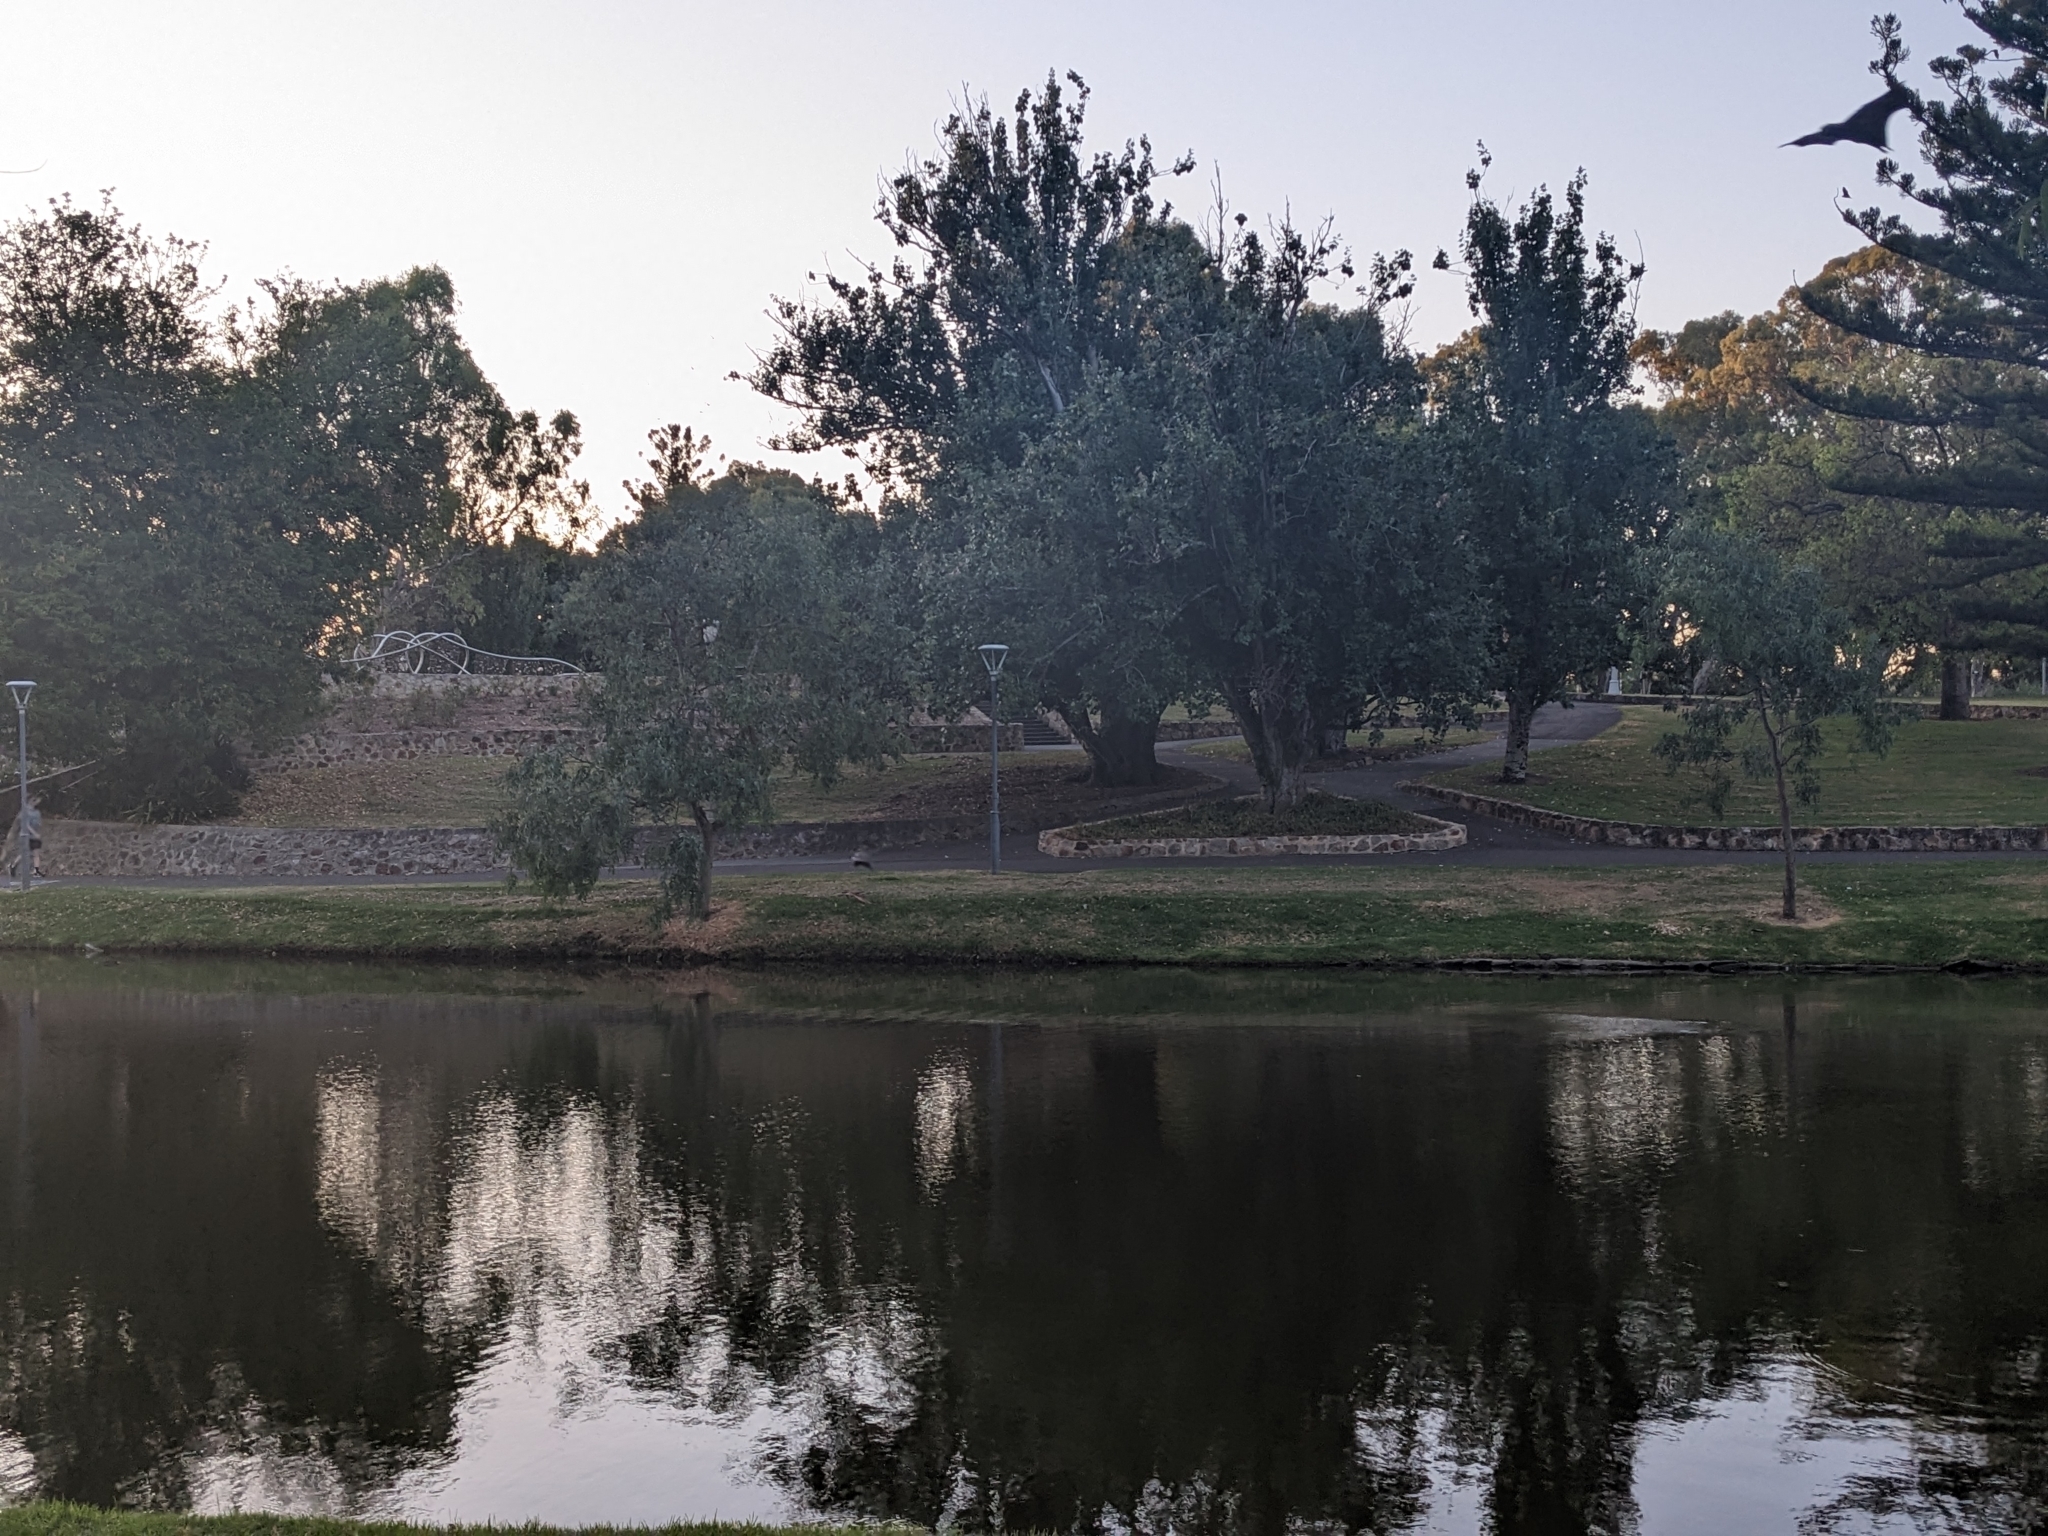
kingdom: Animalia
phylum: Chordata
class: Mammalia
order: Chiroptera
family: Pteropodidae
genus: Pteropus
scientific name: Pteropus poliocephalus
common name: Gray-headed flying fox
